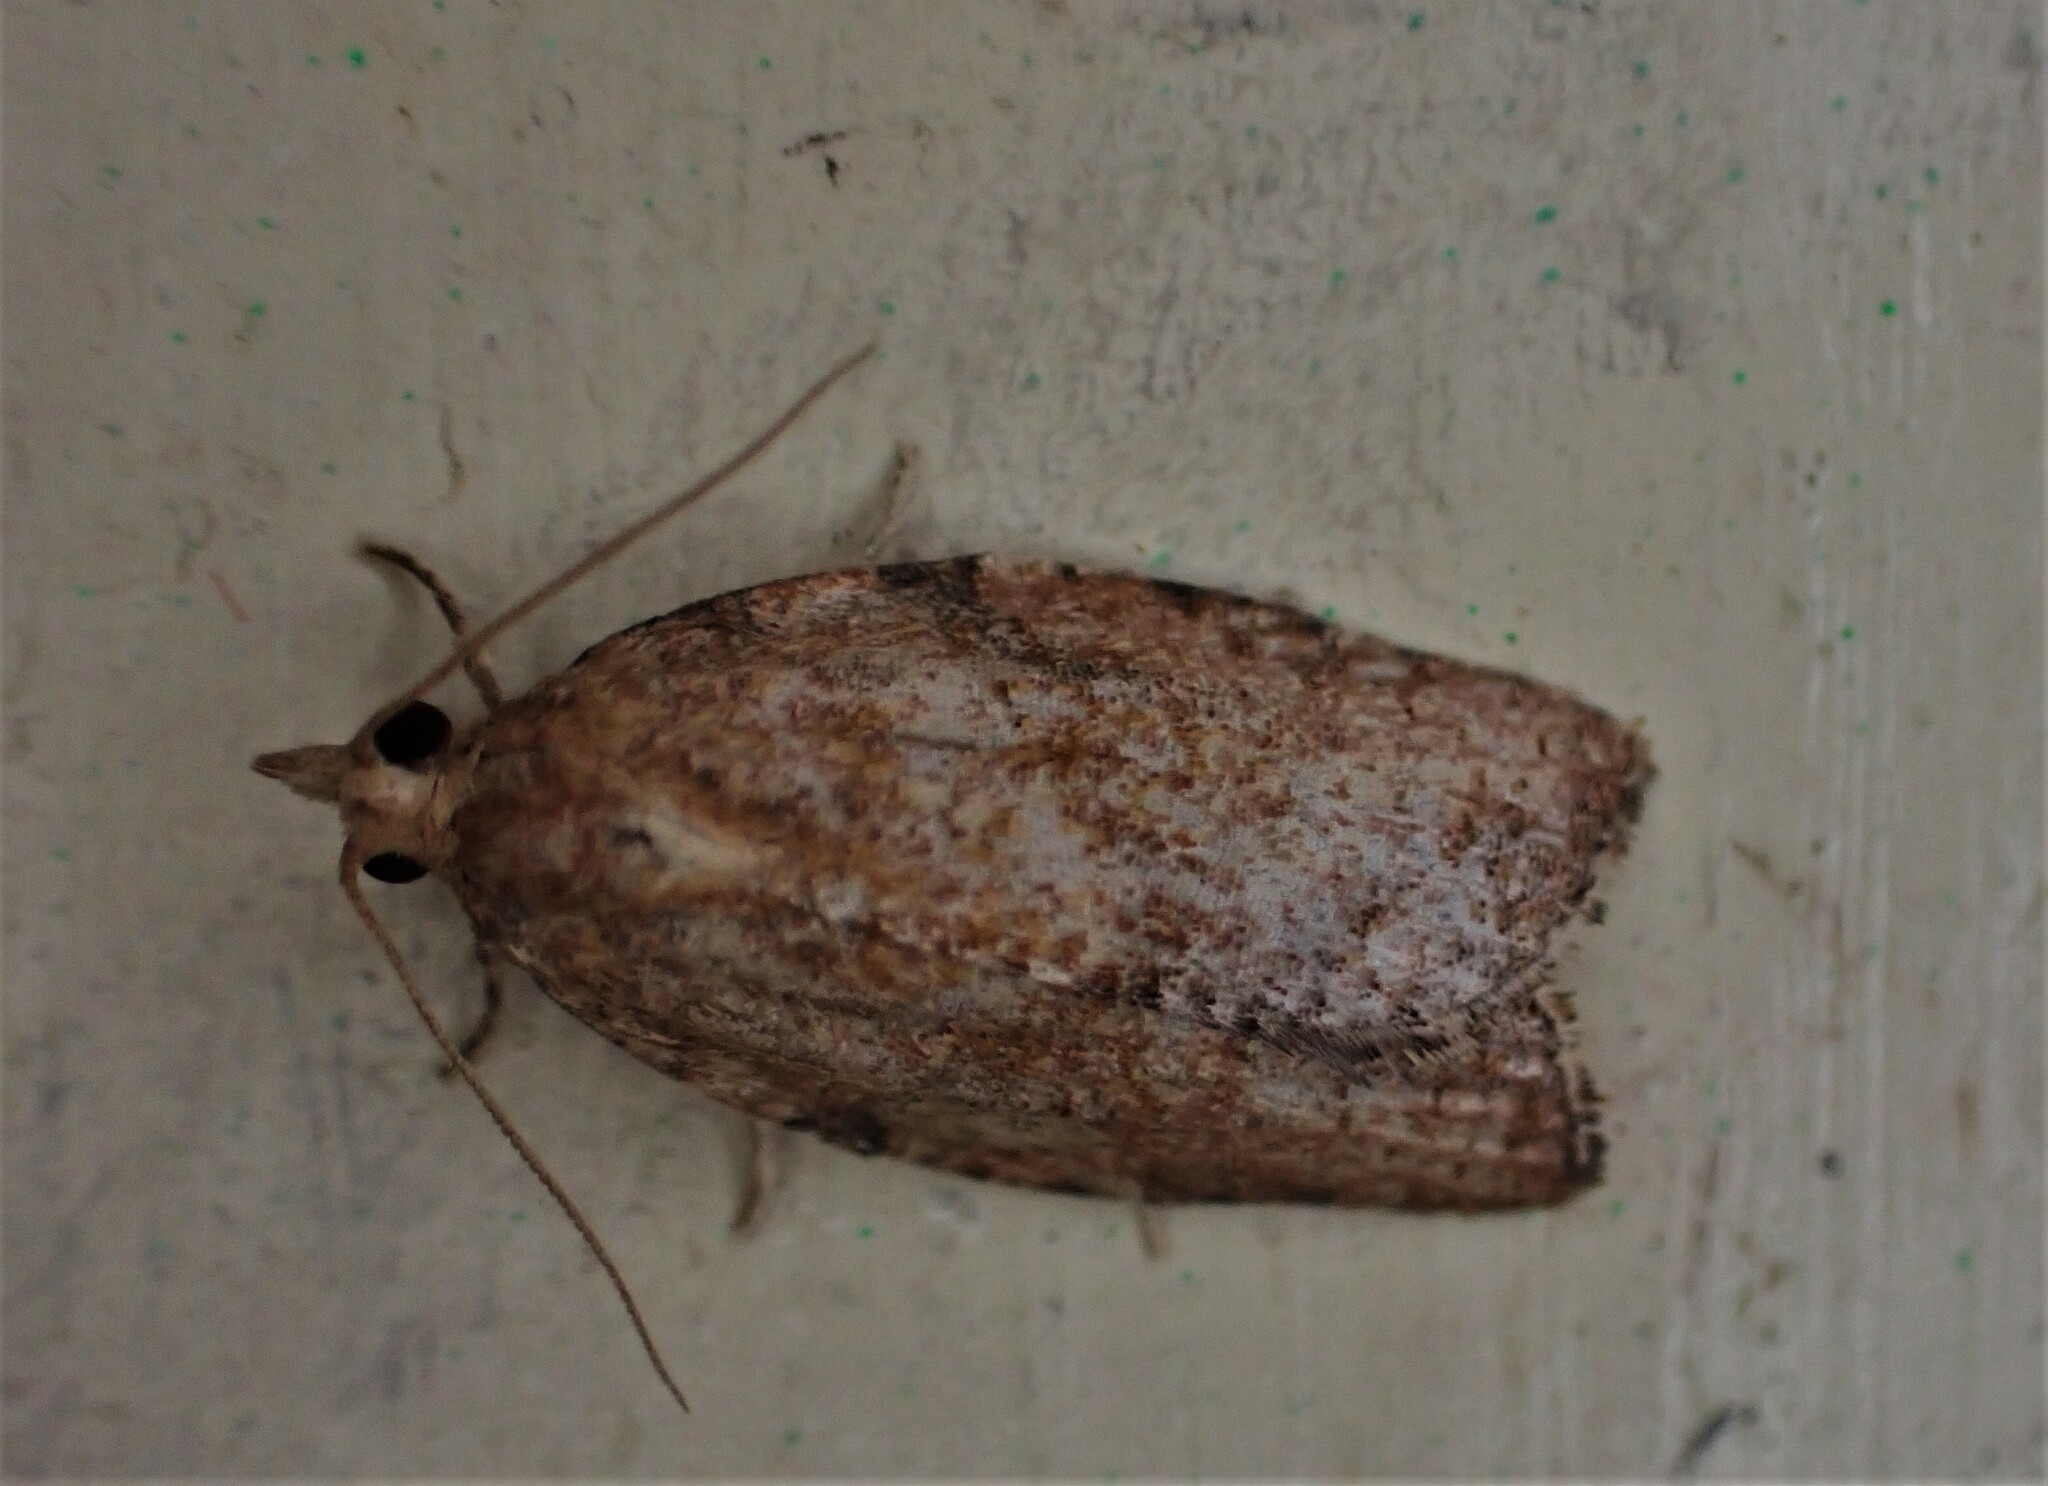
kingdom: Animalia
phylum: Arthropoda
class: Insecta
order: Lepidoptera
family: Tortricidae
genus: Epiphyas
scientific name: Epiphyas postvittana
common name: Light brown apple moth
